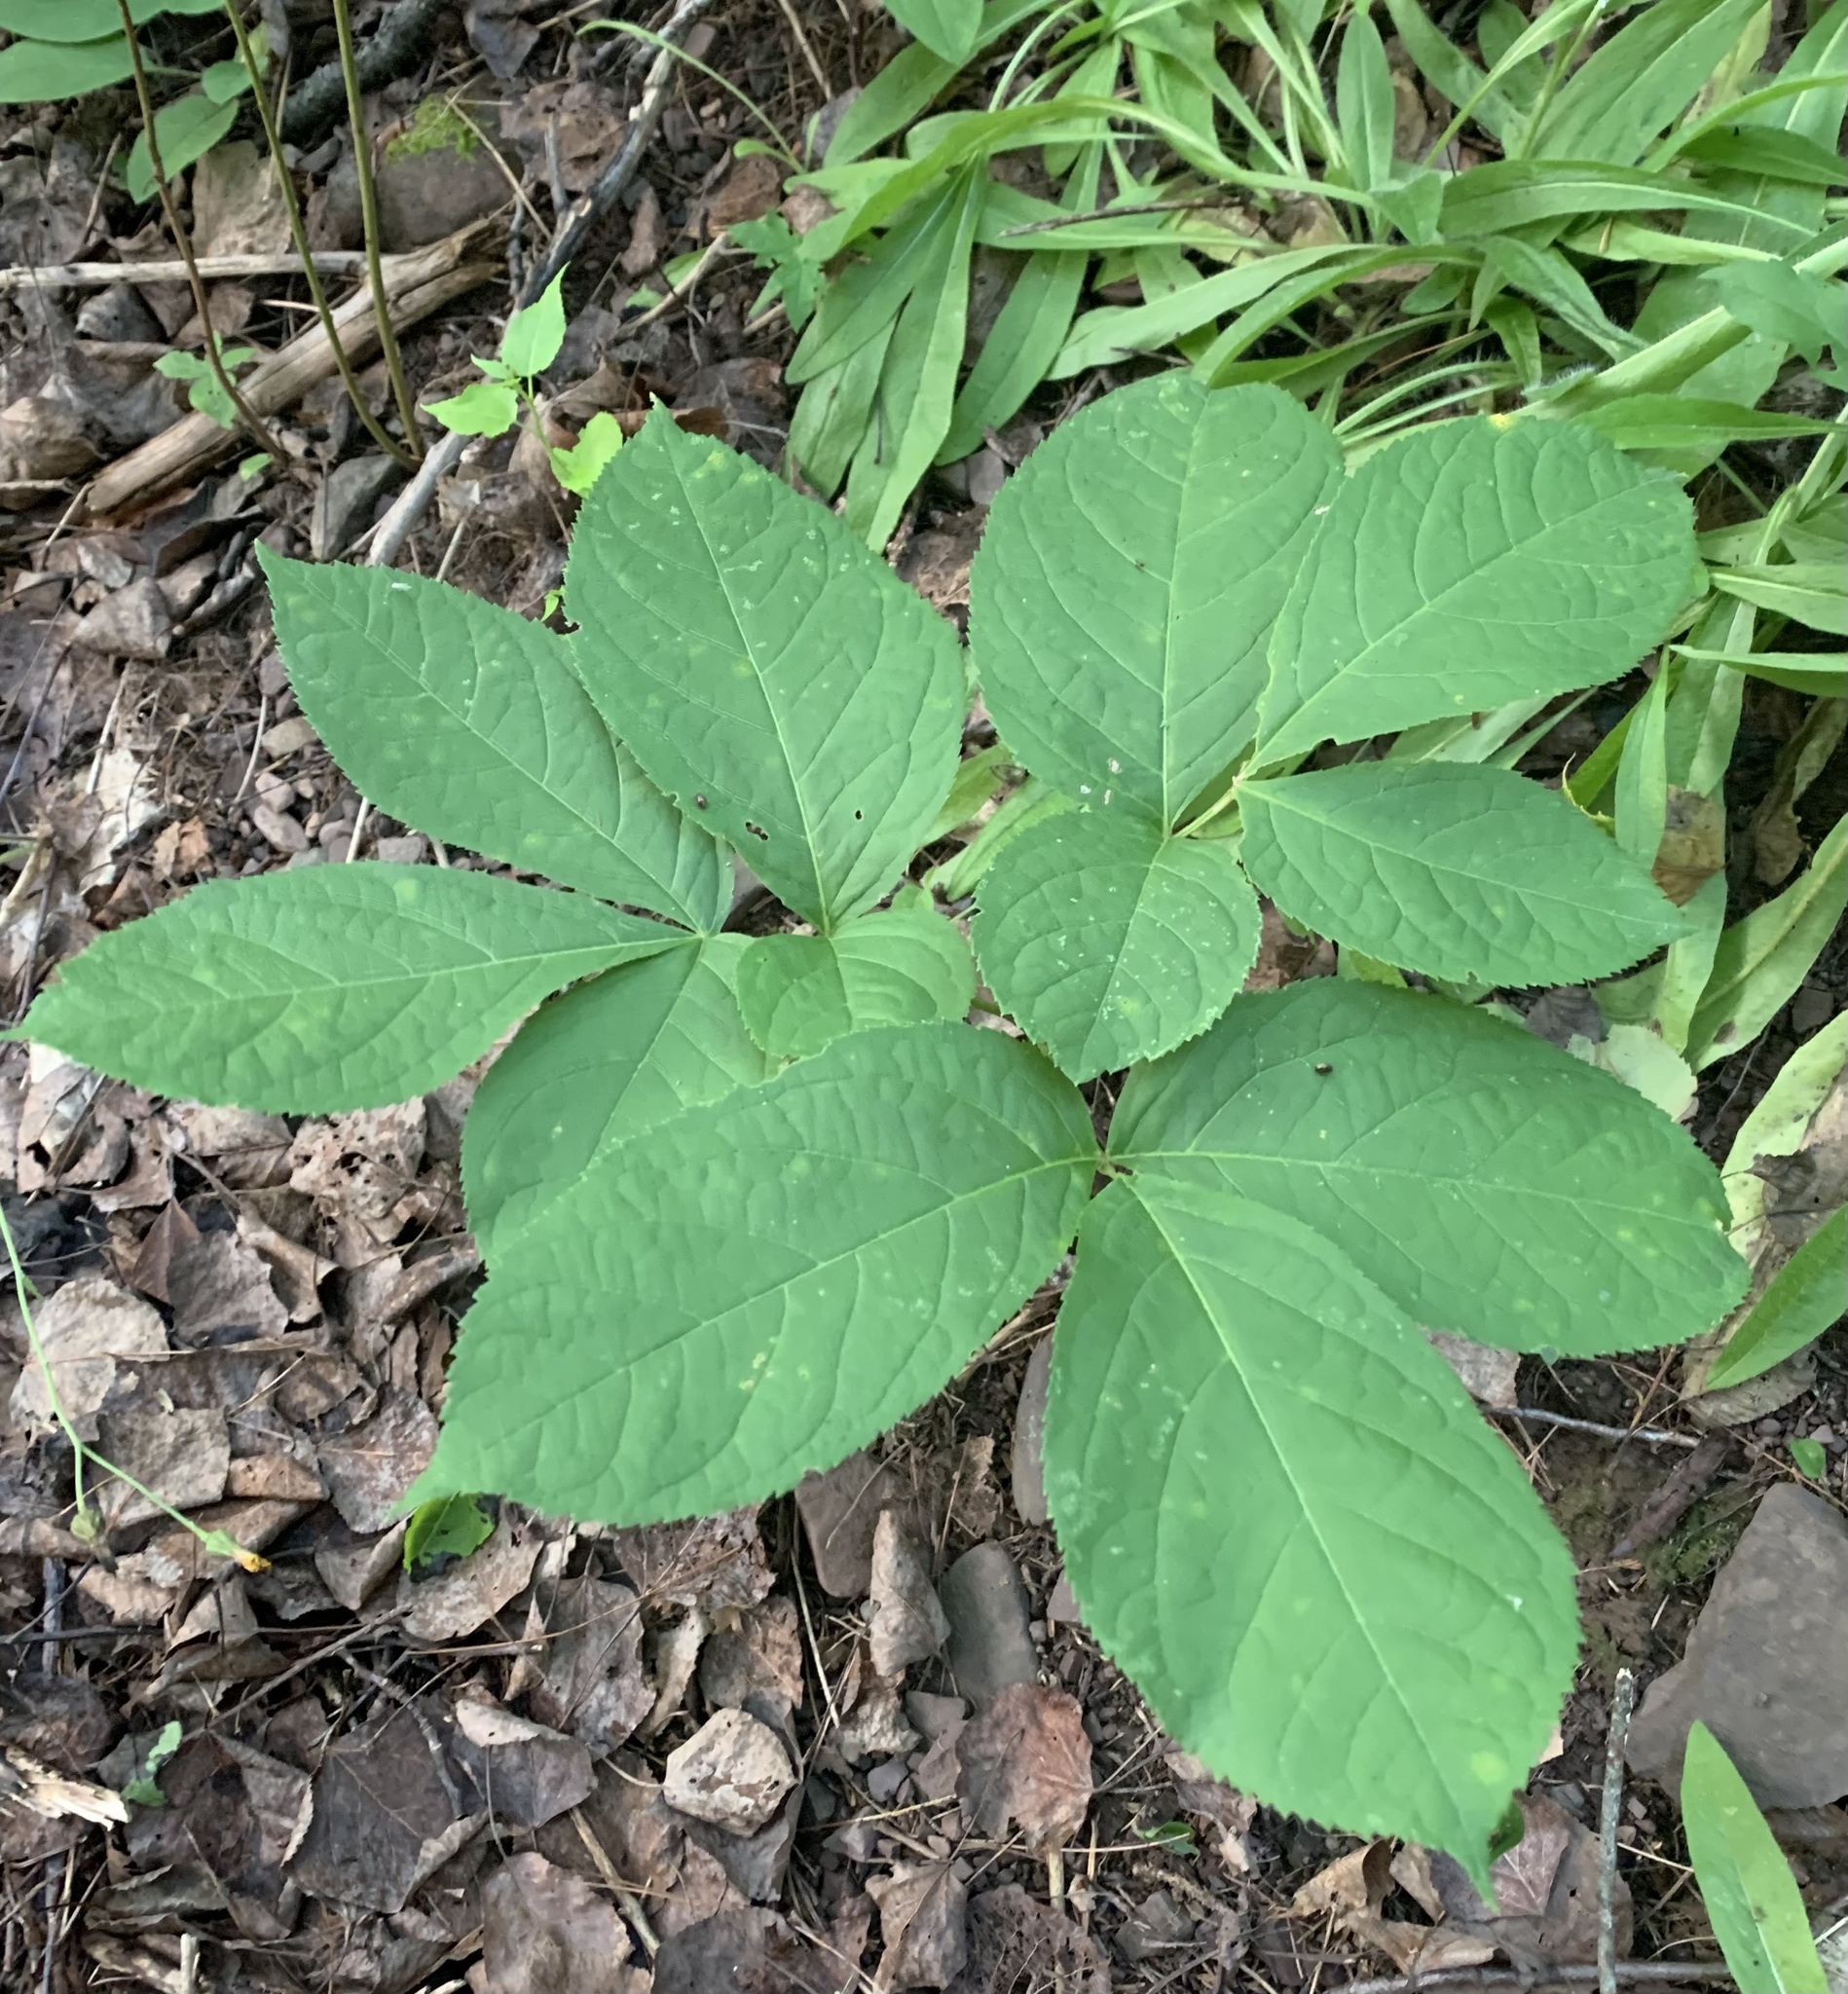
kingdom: Plantae
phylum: Tracheophyta
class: Magnoliopsida
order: Apiales
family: Araliaceae
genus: Aralia
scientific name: Aralia nudicaulis
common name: Wild sarsaparilla
